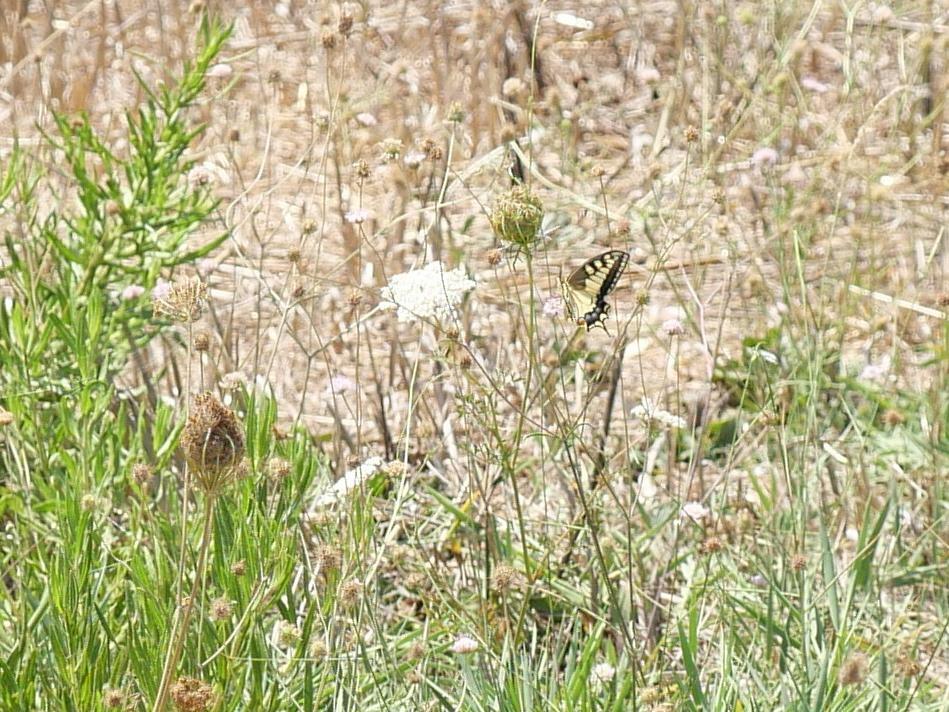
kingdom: Animalia
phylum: Arthropoda
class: Insecta
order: Lepidoptera
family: Papilionidae
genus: Papilio
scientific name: Papilio machaon
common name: Swallowtail
